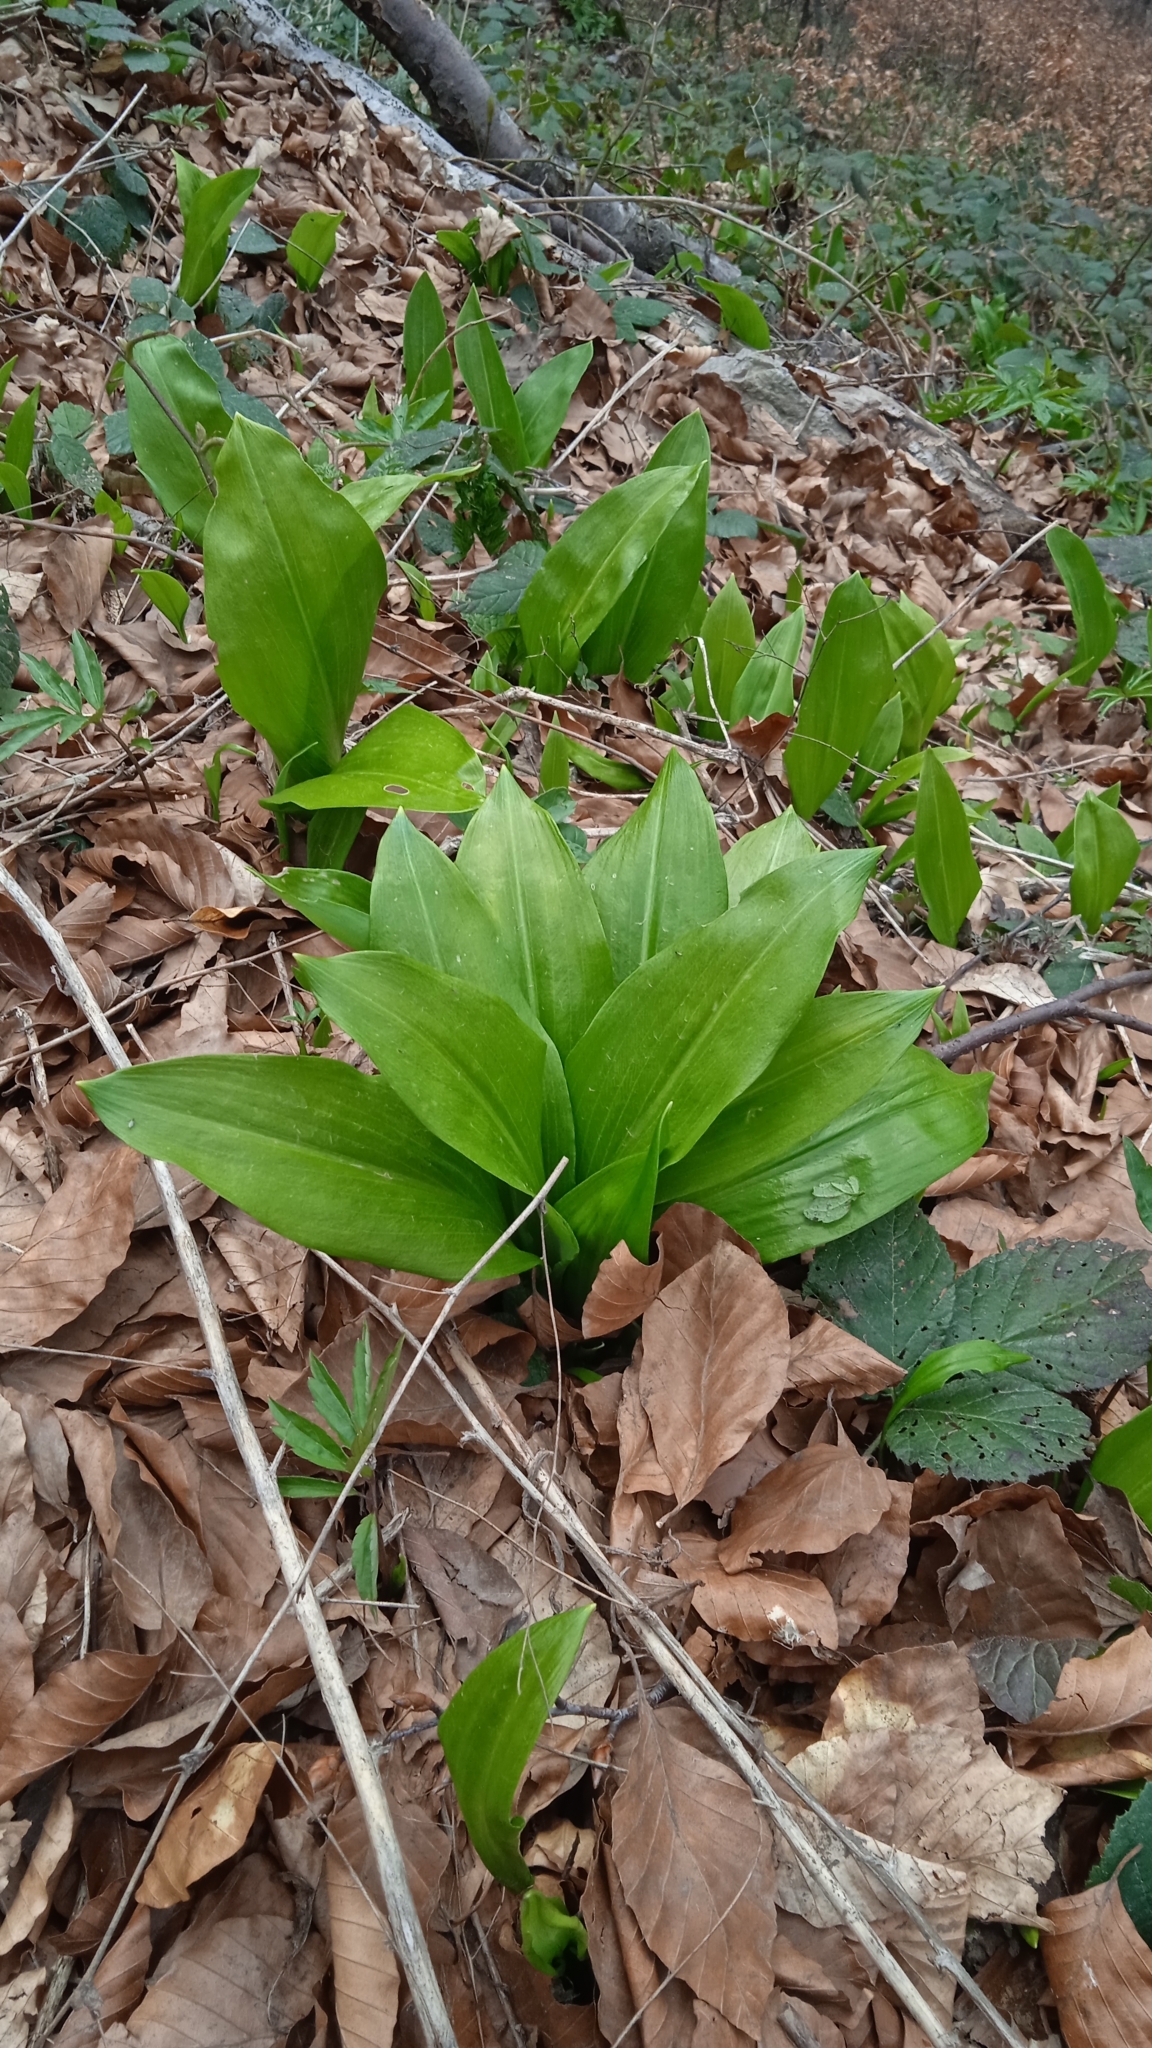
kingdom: Plantae
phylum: Tracheophyta
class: Liliopsida
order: Asparagales
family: Amaryllidaceae
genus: Allium
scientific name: Allium ursinum
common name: Ramsons
